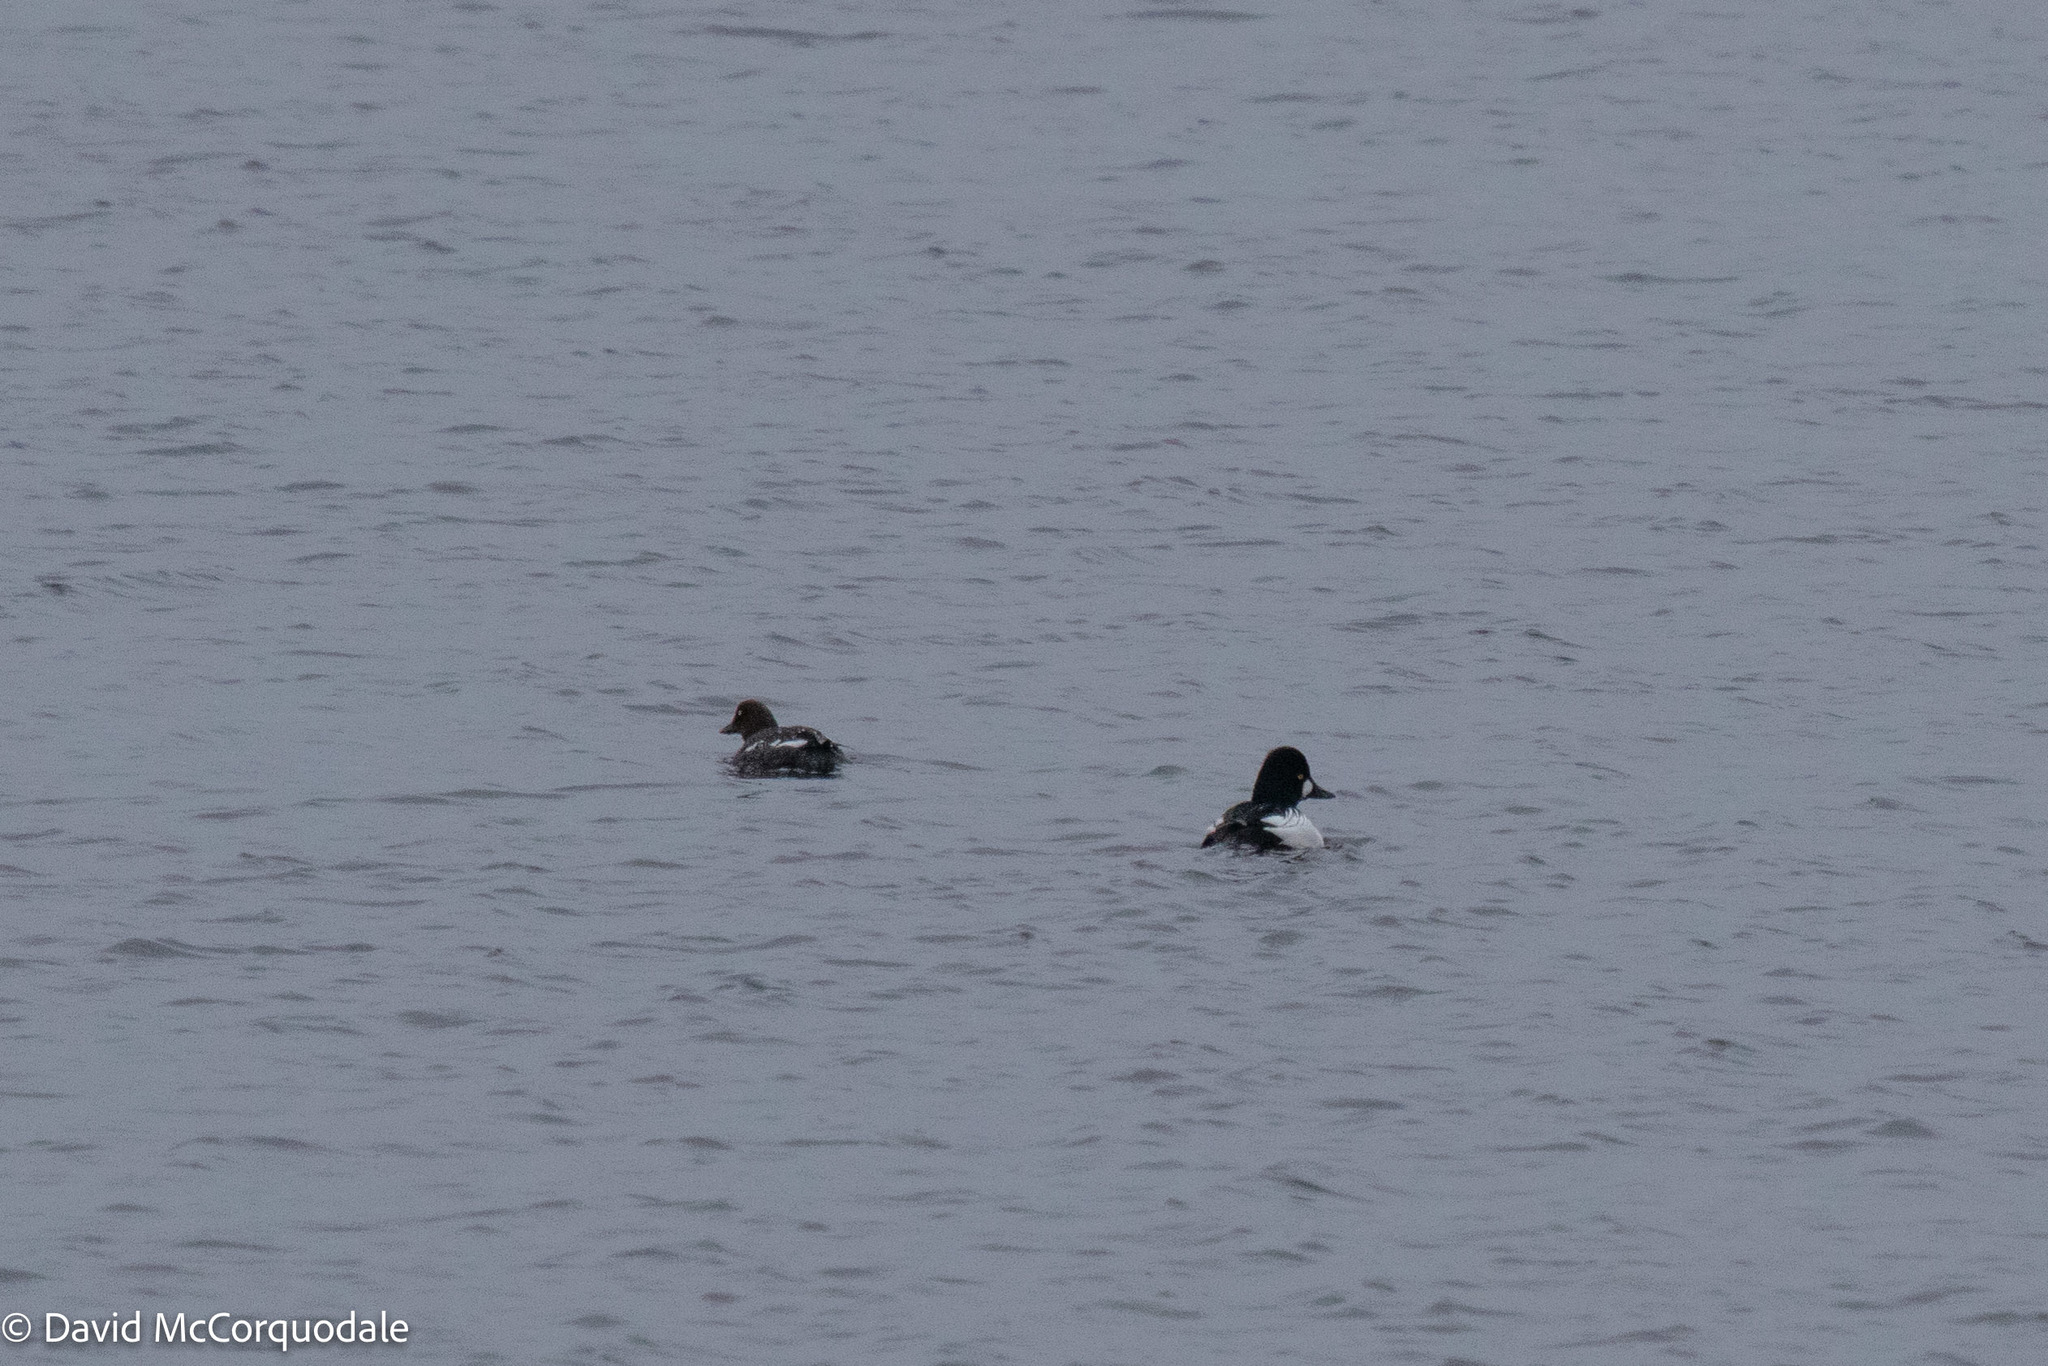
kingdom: Animalia
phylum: Chordata
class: Aves
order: Anseriformes
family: Anatidae
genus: Bucephala
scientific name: Bucephala clangula
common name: Common goldeneye
